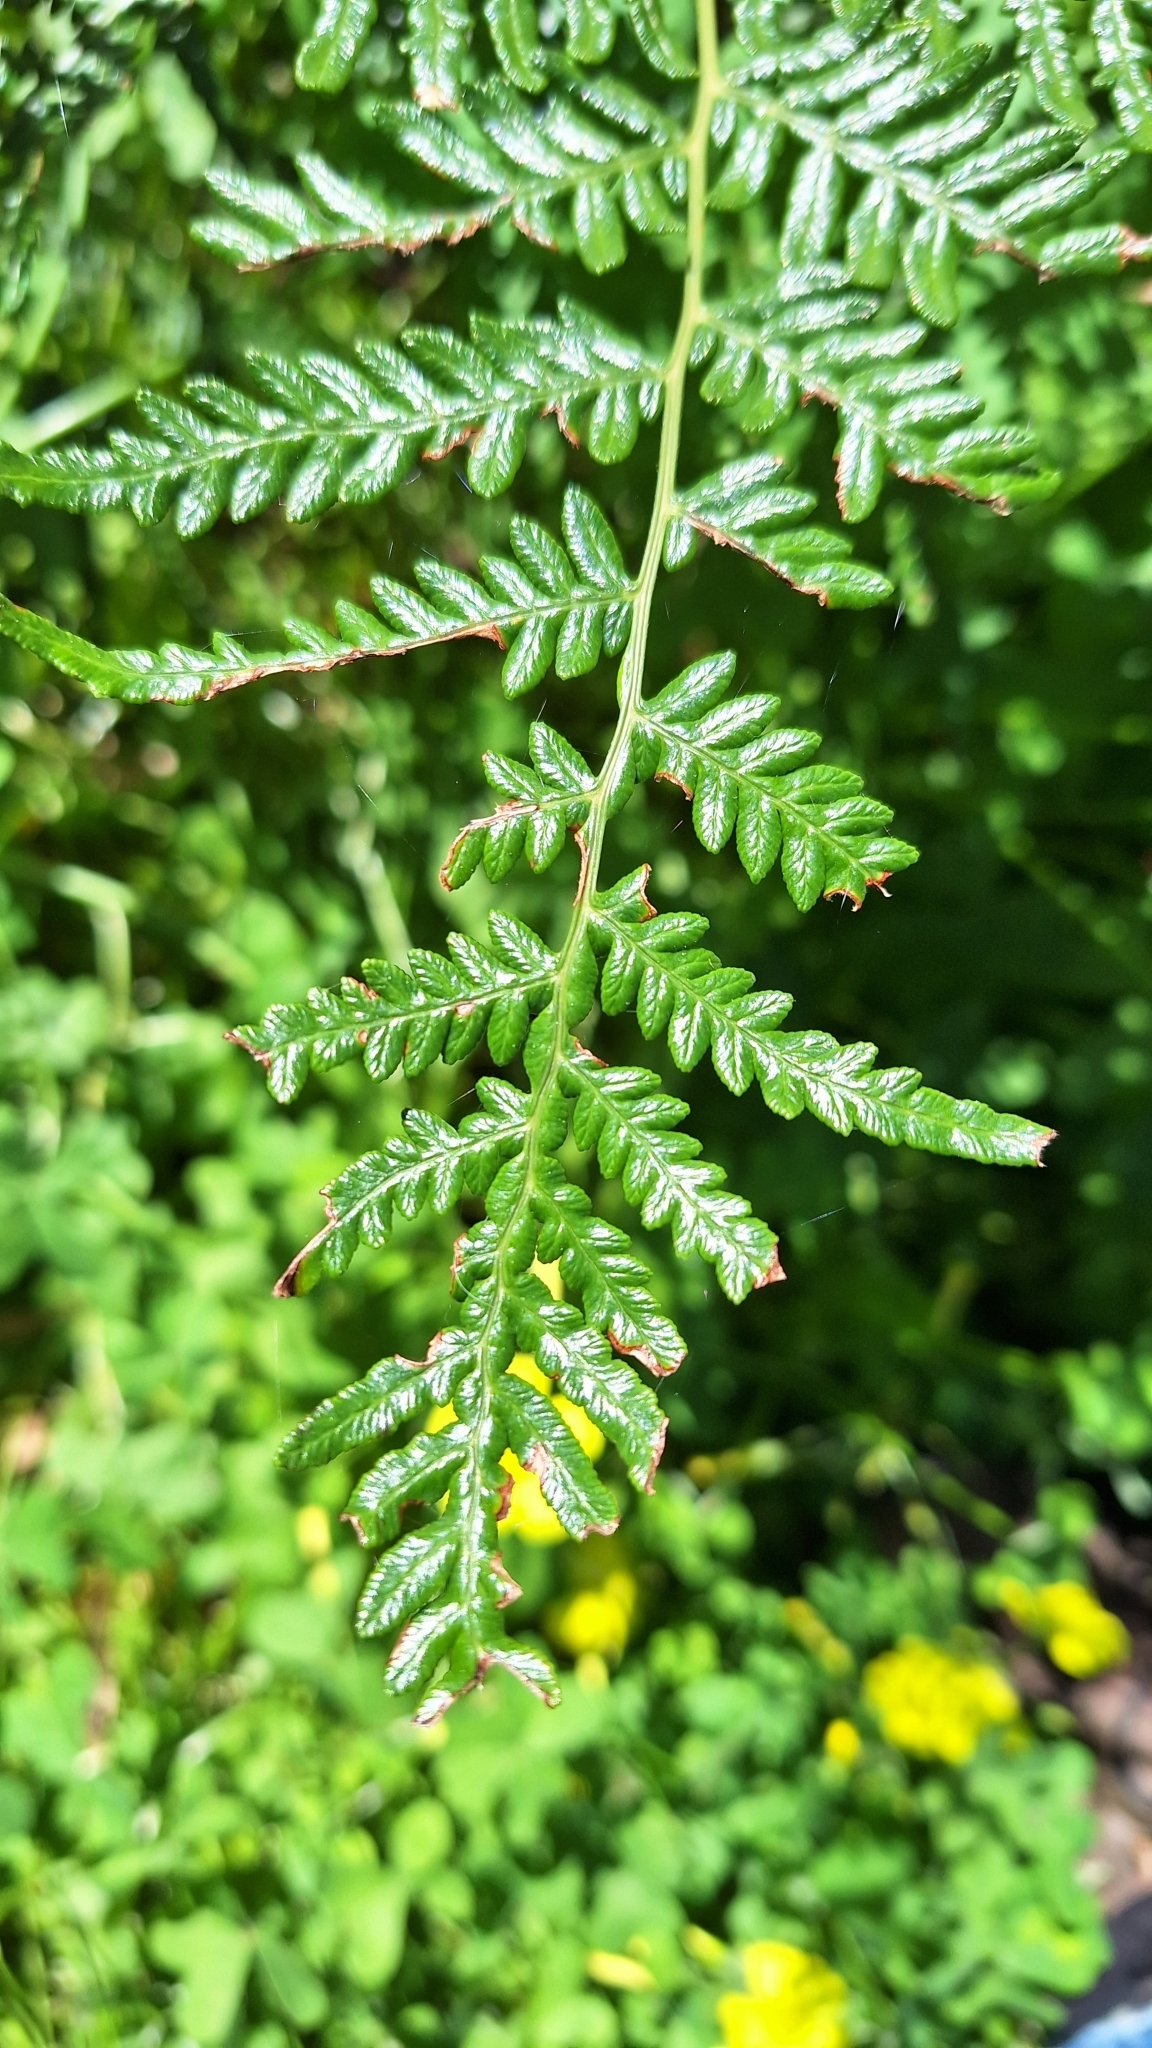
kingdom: Plantae
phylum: Tracheophyta
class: Polypodiopsida
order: Polypodiales
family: Dennstaedtiaceae
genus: Pteridium
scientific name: Pteridium esculentum
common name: Bracken fern
